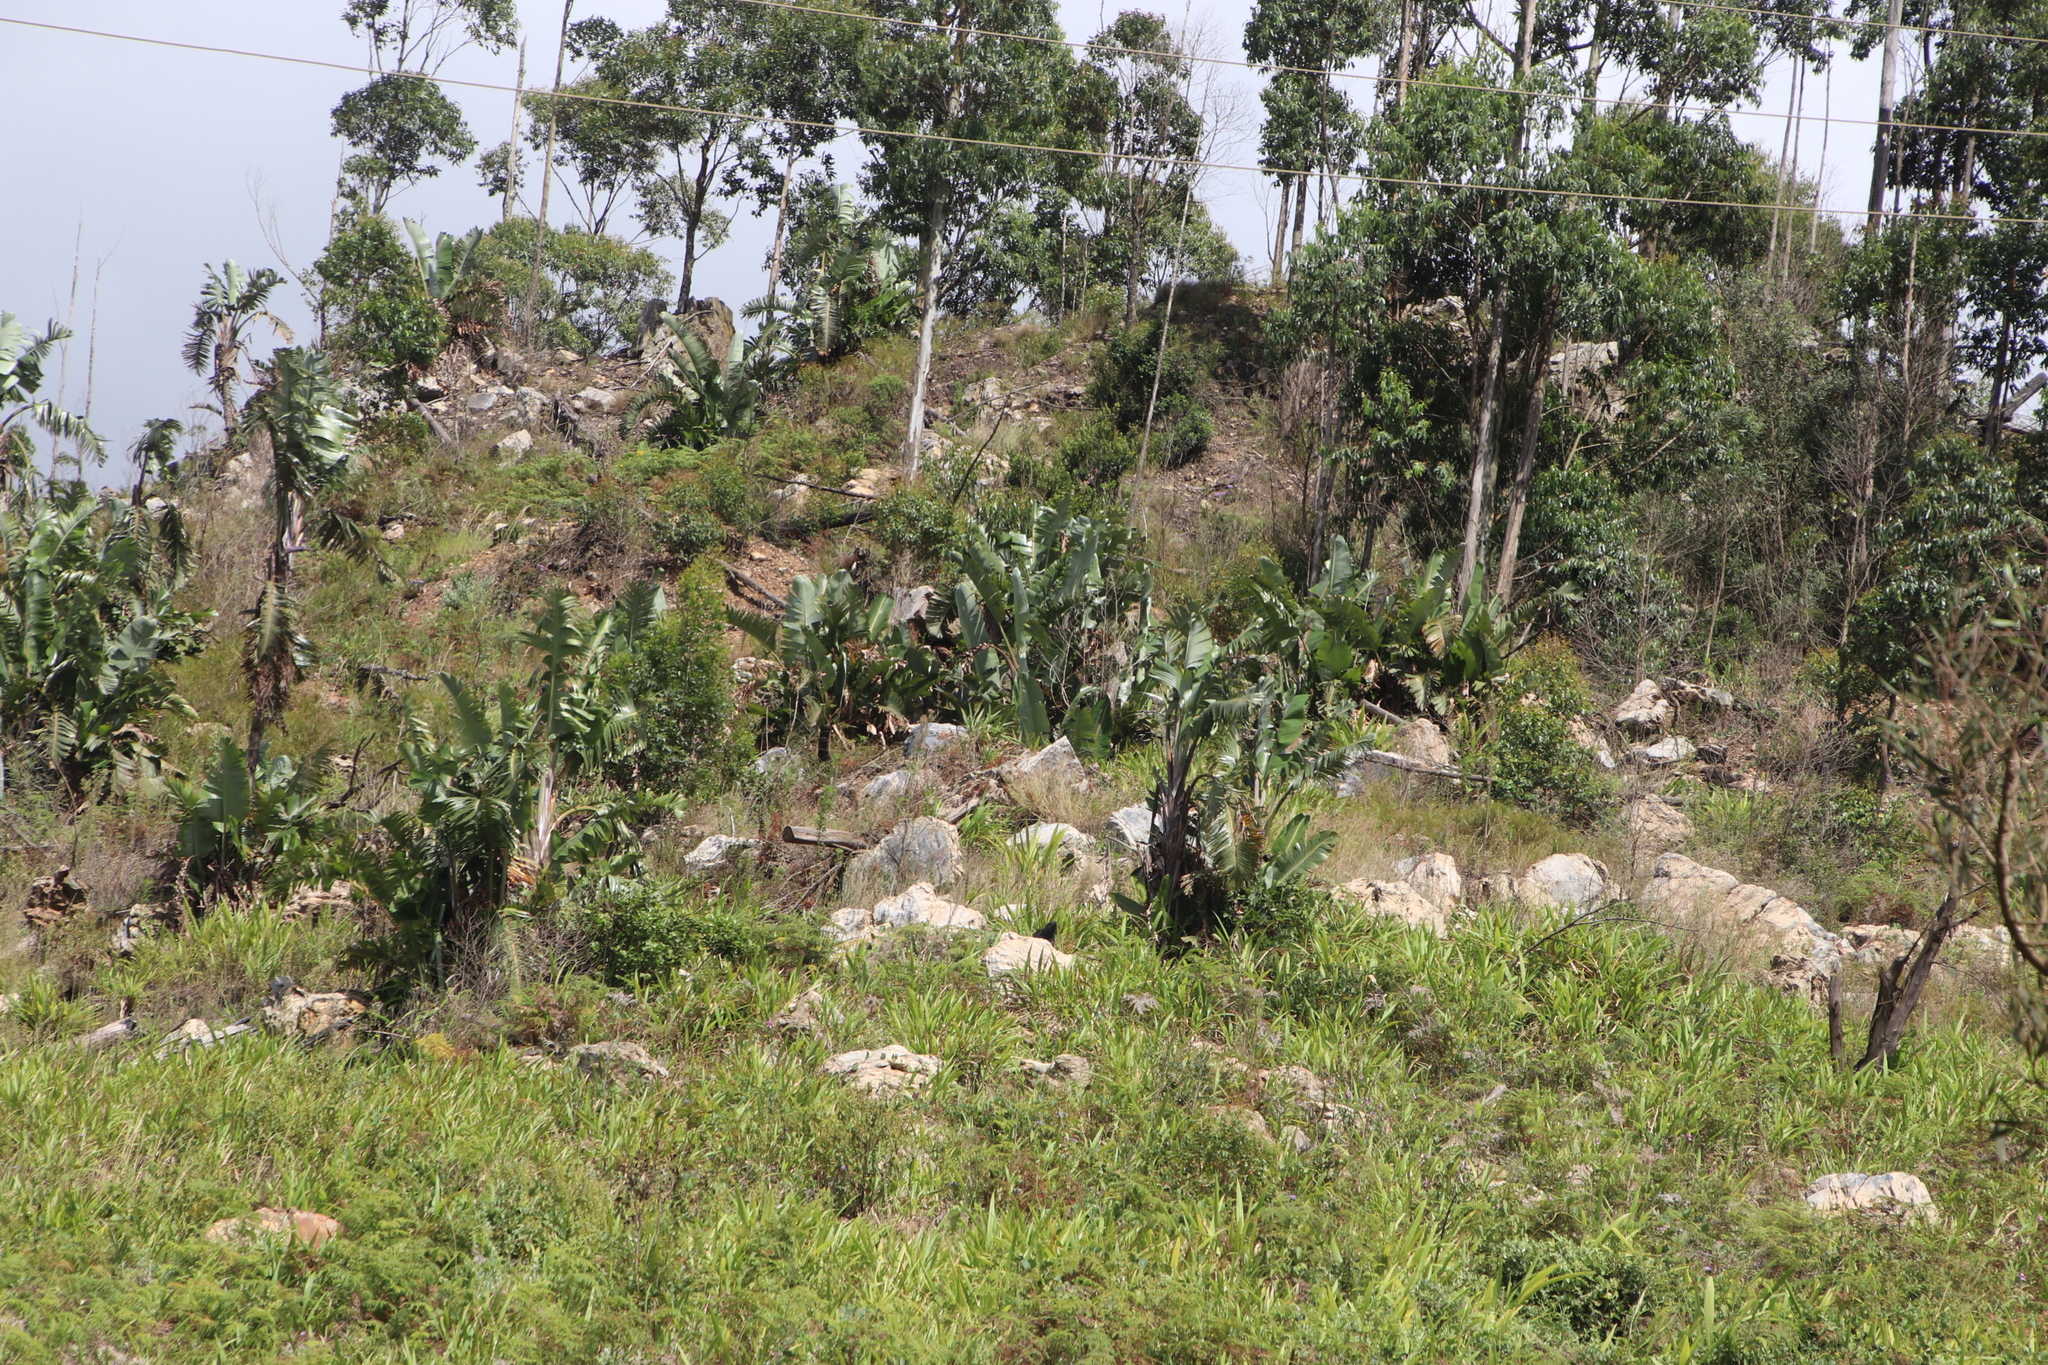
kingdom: Plantae
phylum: Tracheophyta
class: Liliopsida
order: Zingiberales
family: Strelitziaceae
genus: Strelitzia
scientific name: Strelitzia caudata
